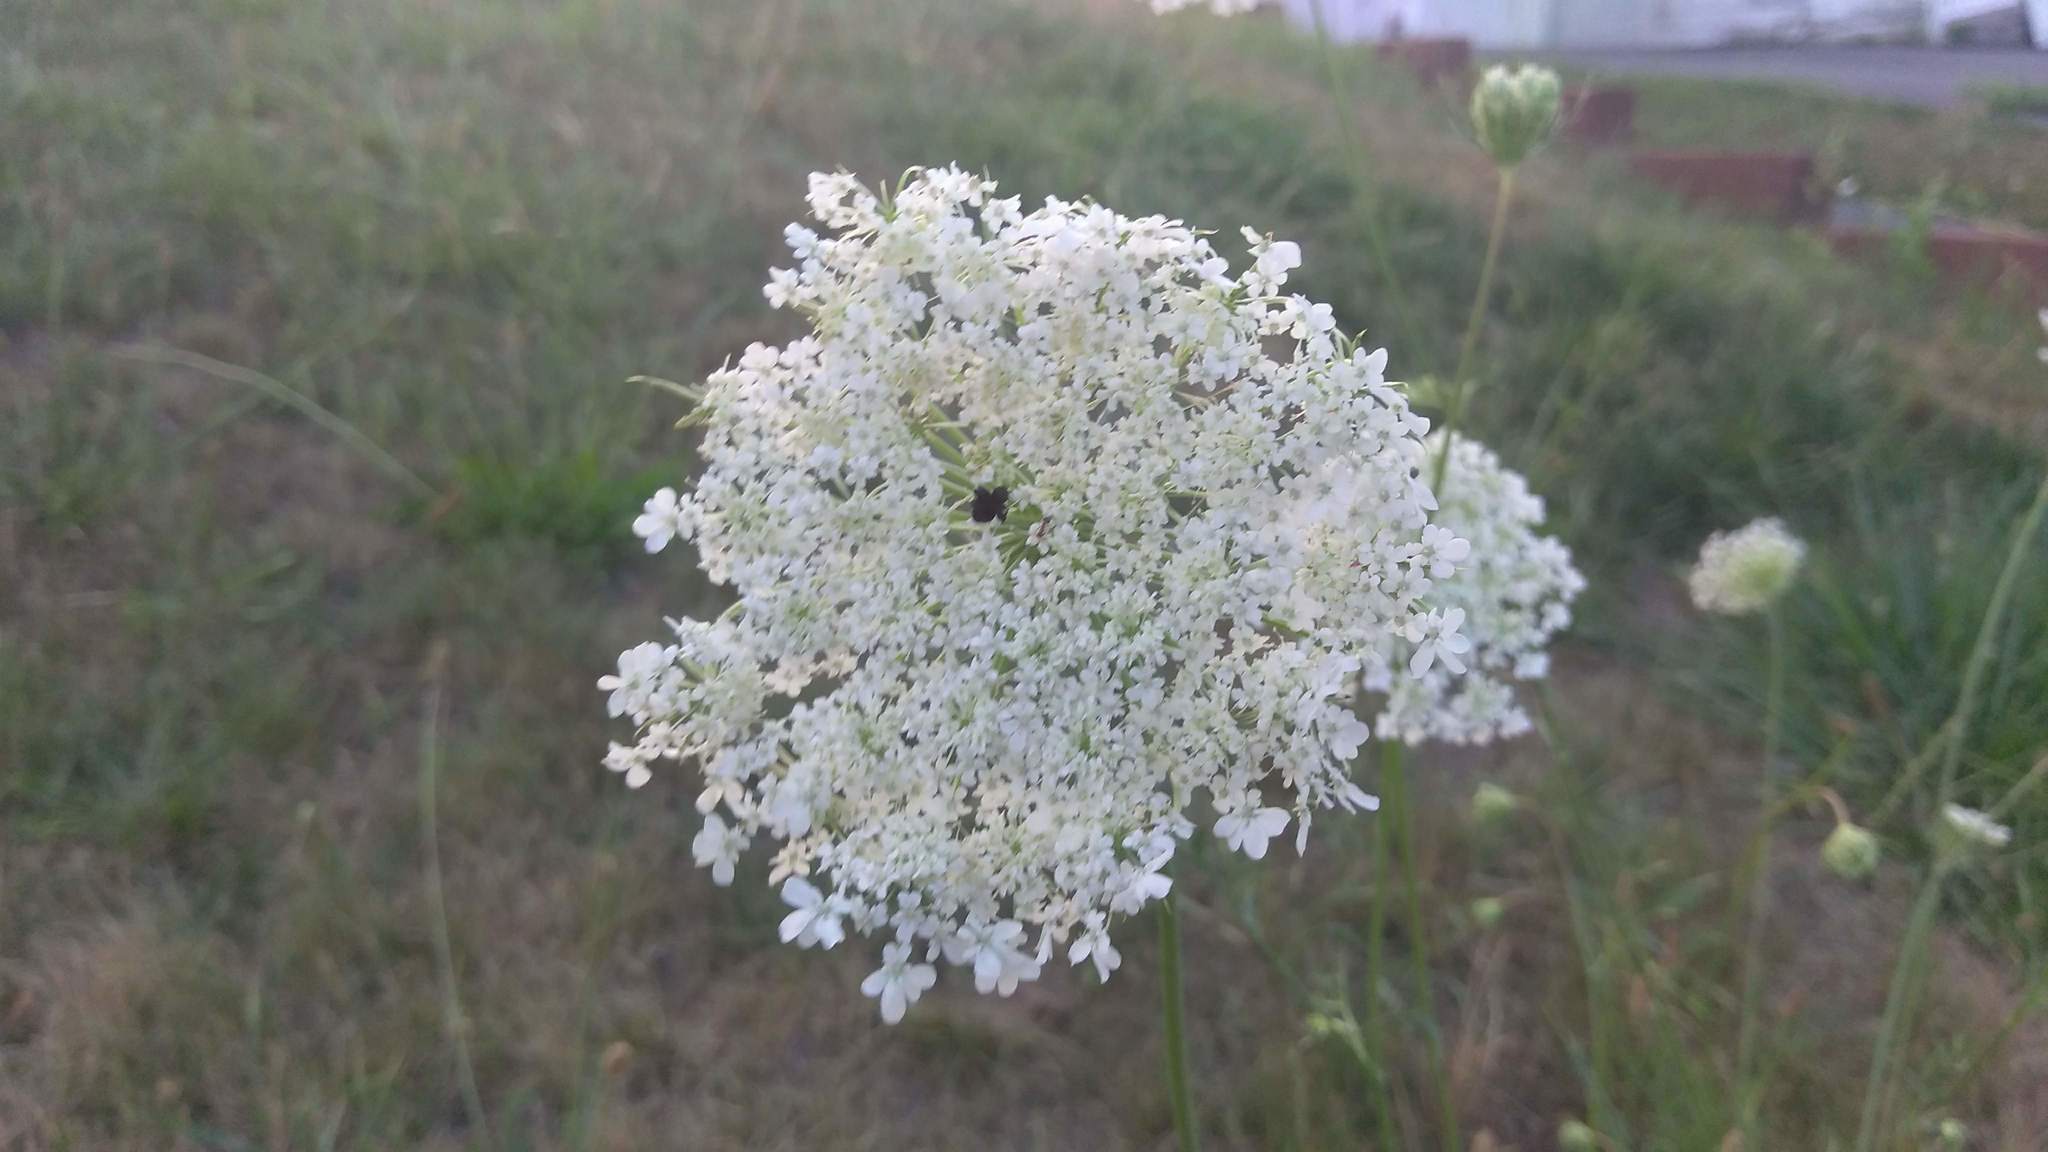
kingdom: Plantae
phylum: Tracheophyta
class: Magnoliopsida
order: Apiales
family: Apiaceae
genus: Daucus
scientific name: Daucus carota
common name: Wild carrot
